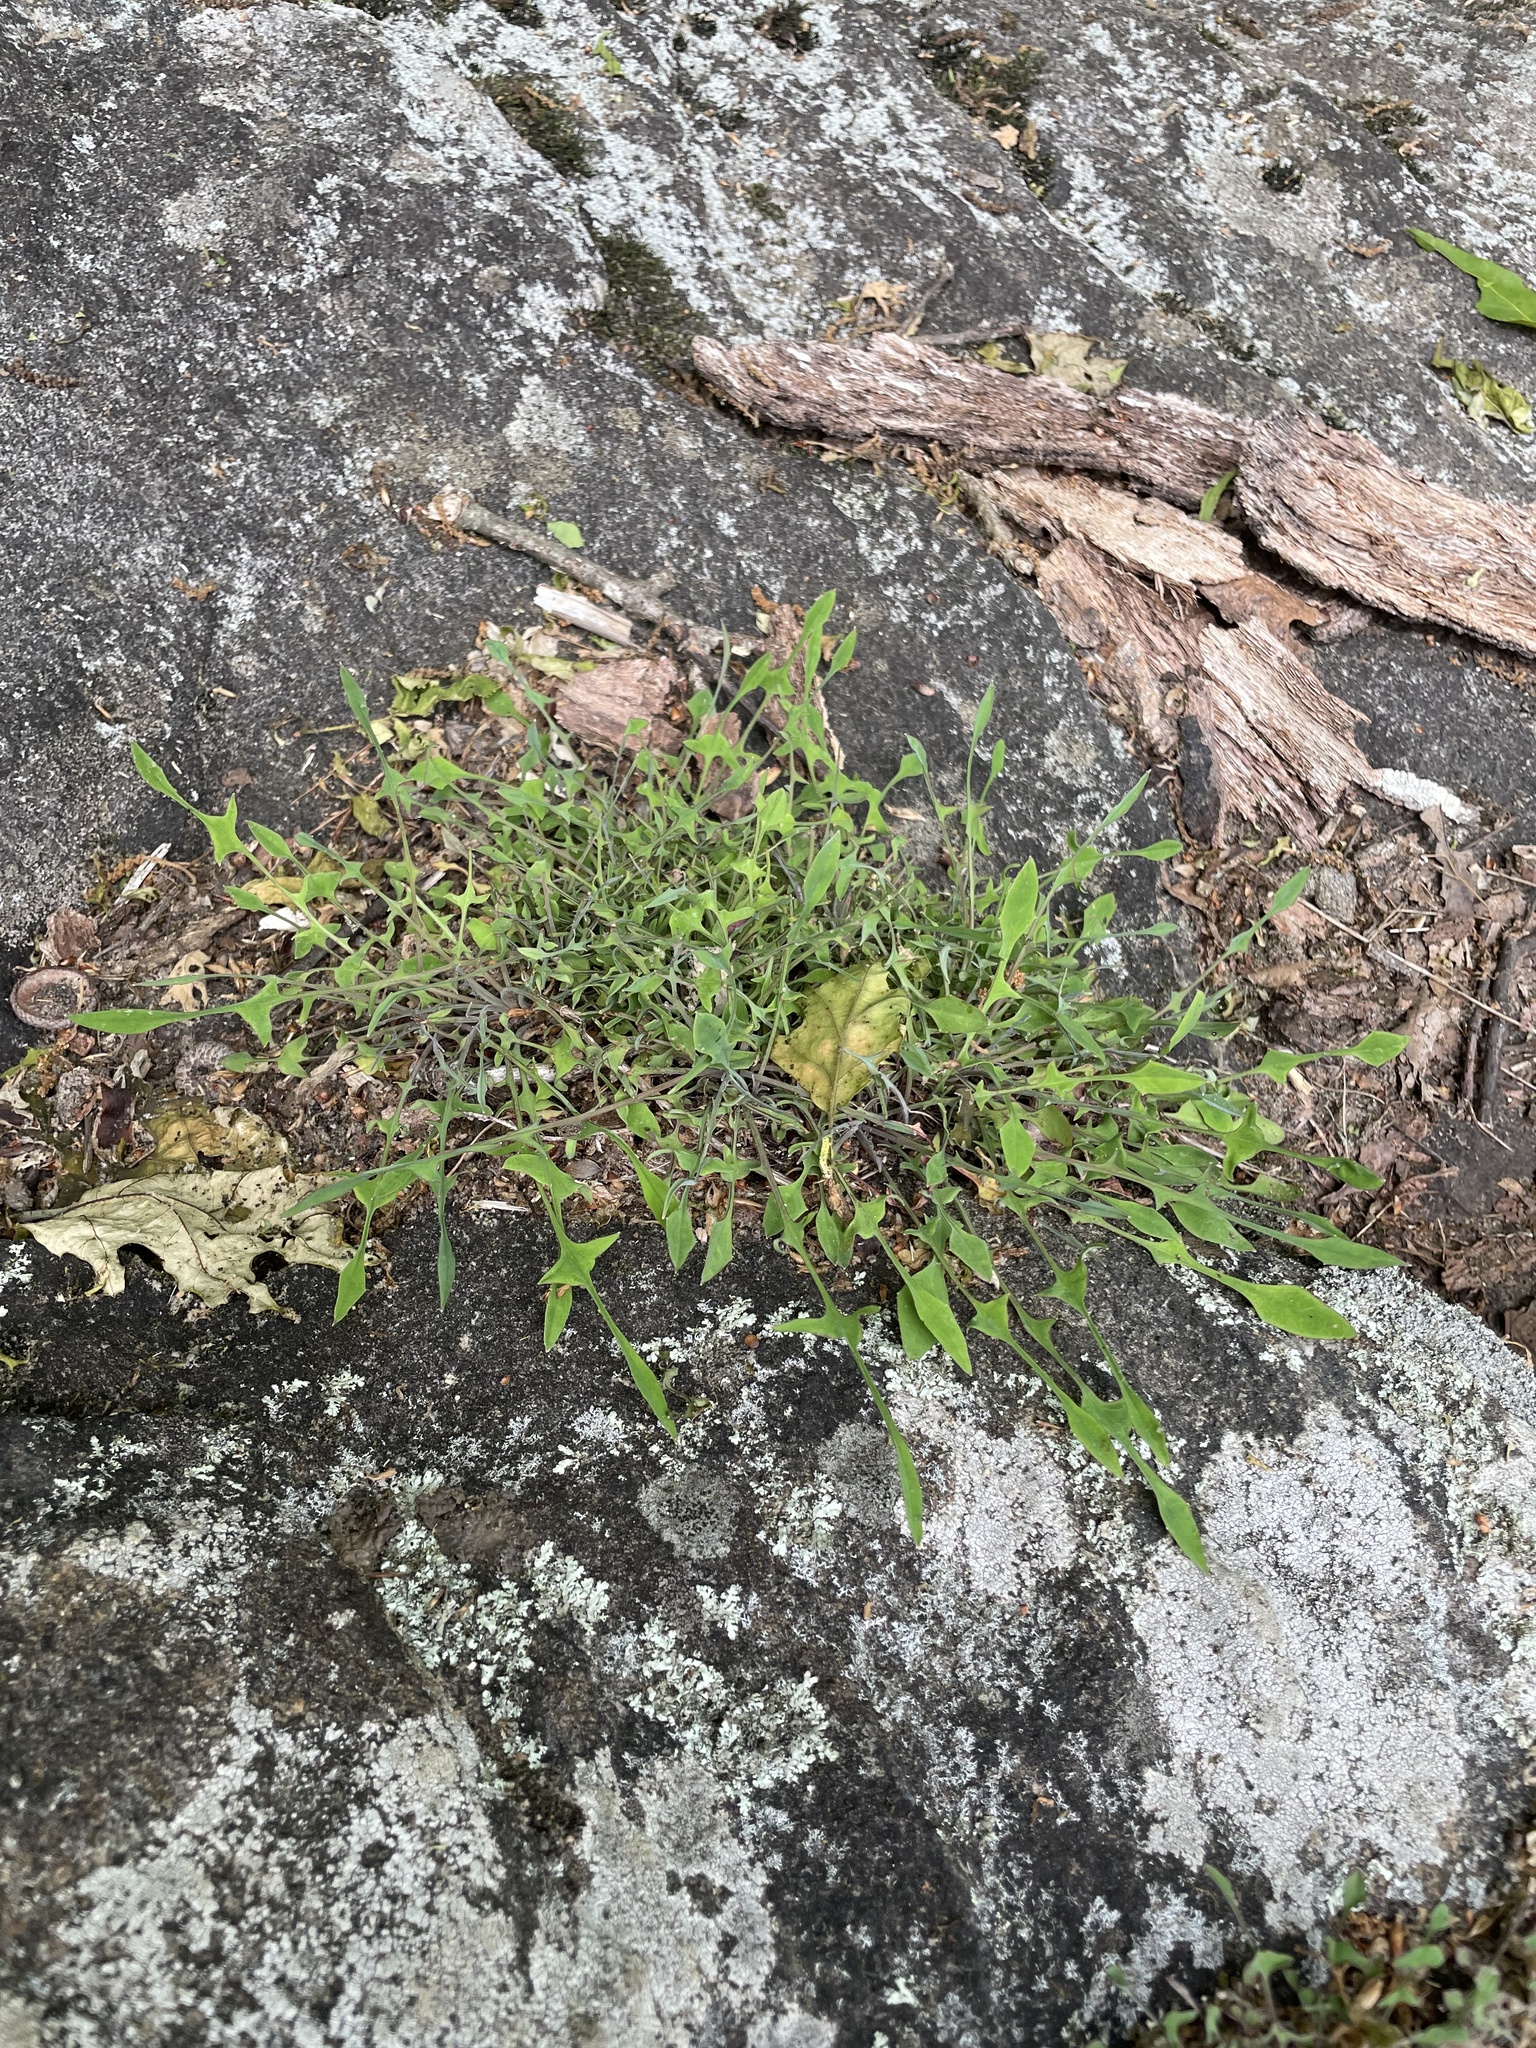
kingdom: Plantae
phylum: Tracheophyta
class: Magnoliopsida
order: Asterales
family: Asteraceae
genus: Krigia
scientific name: Krigia montana
